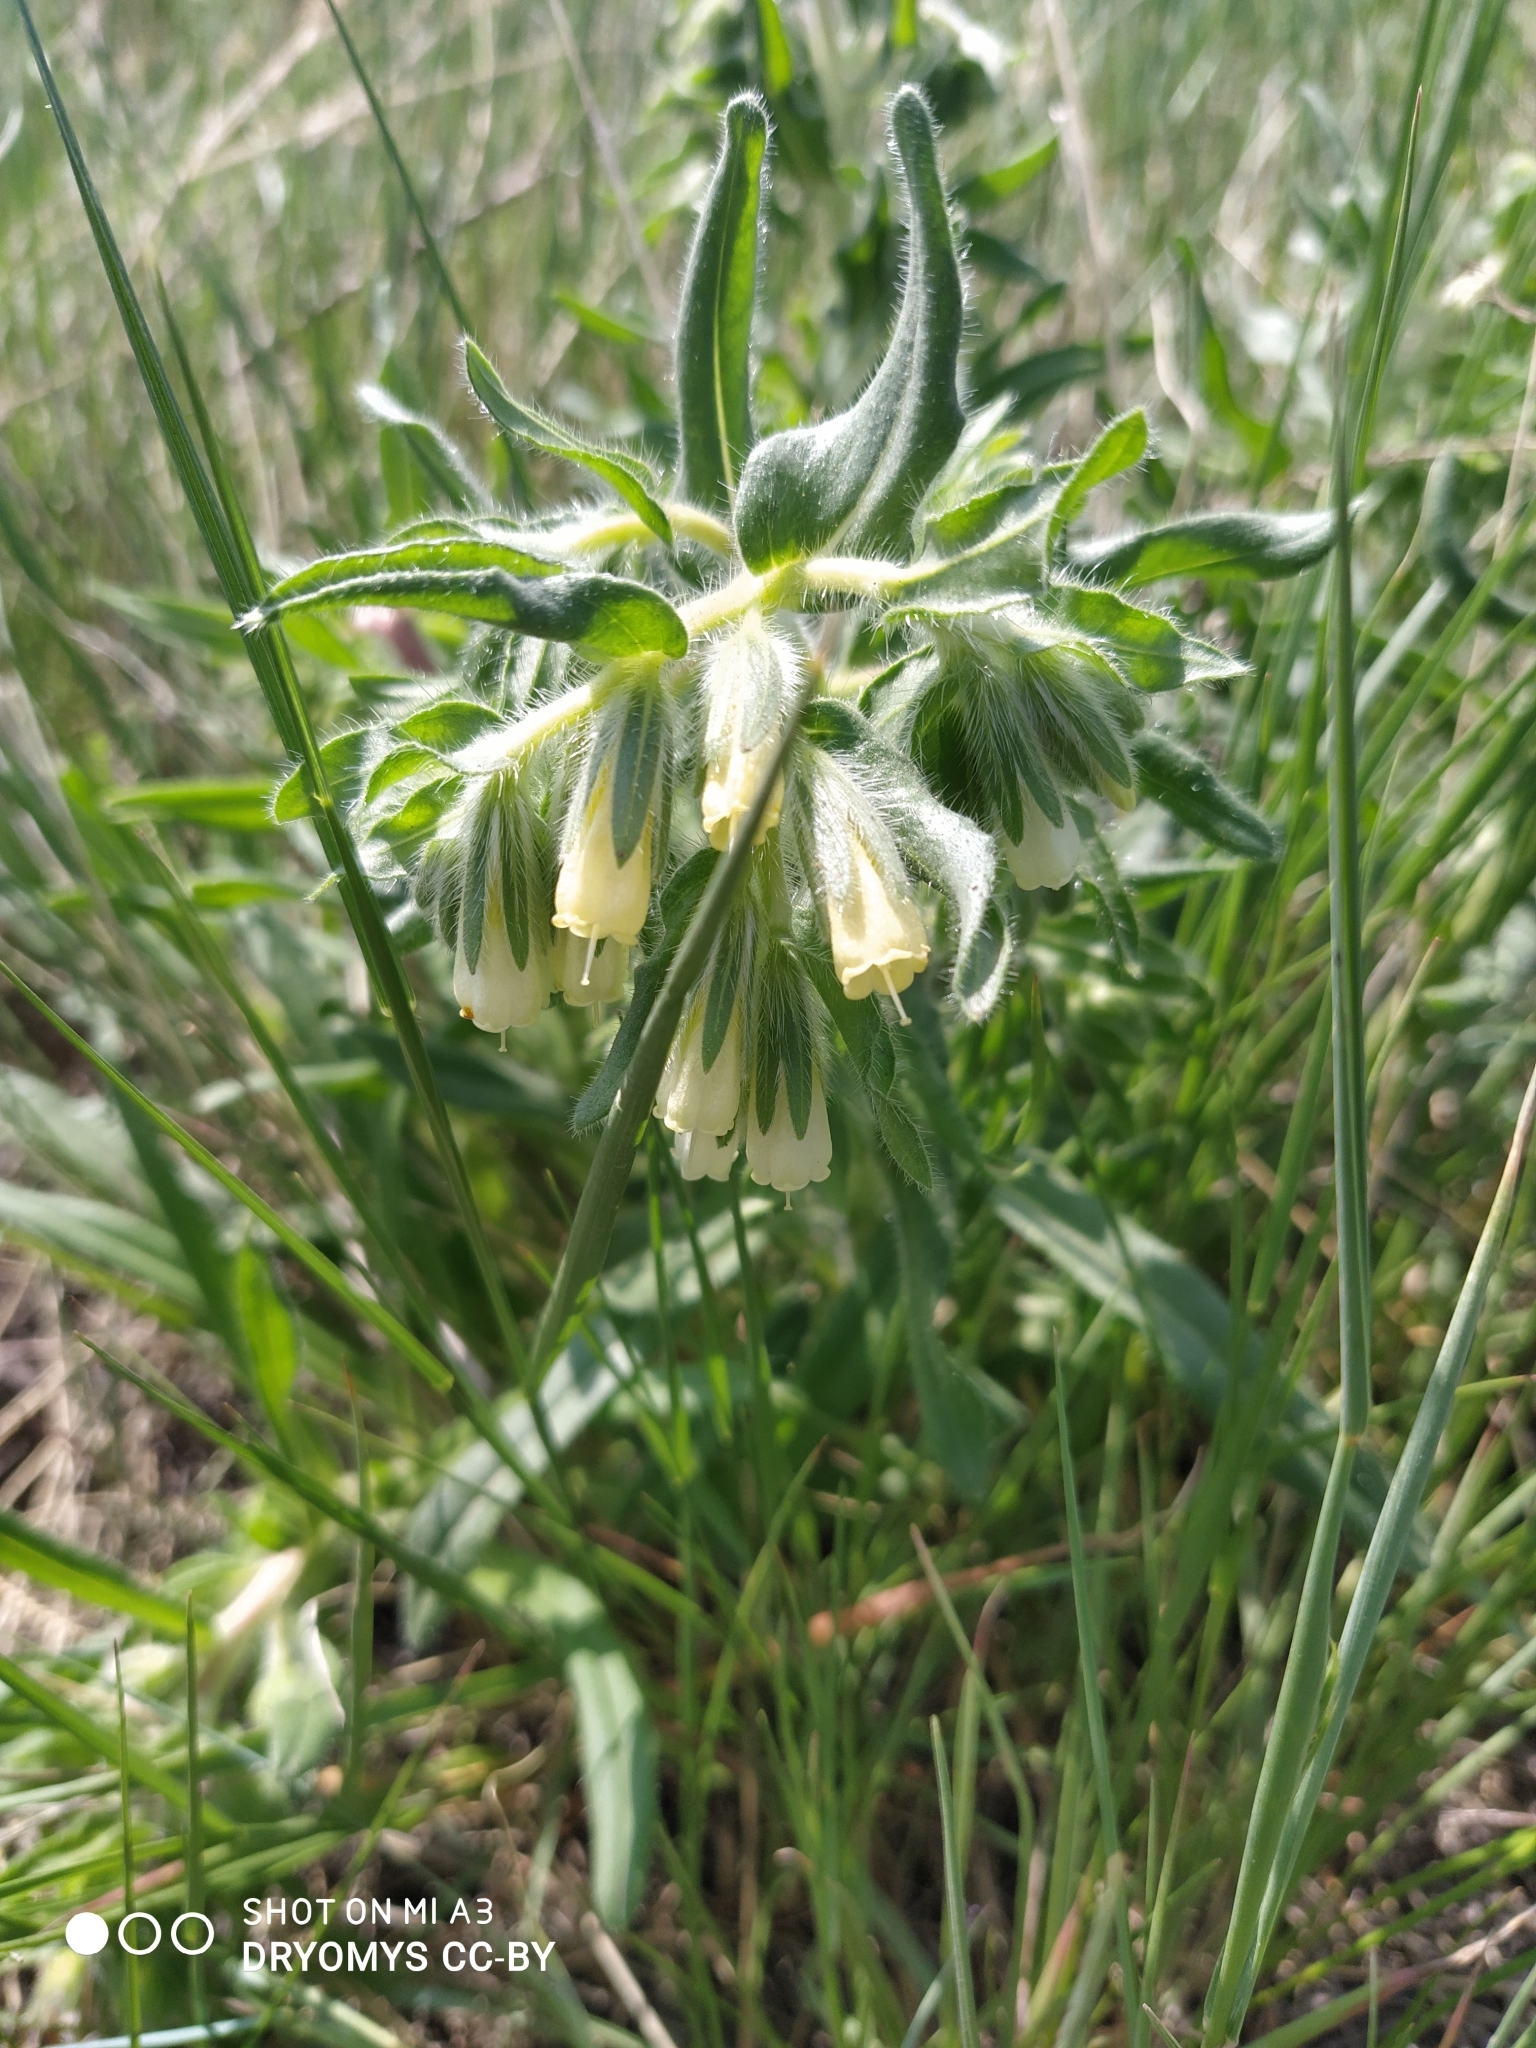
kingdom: Plantae
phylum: Tracheophyta
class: Magnoliopsida
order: Boraginales
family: Boraginaceae
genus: Onosma
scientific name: Onosma simplicissima
